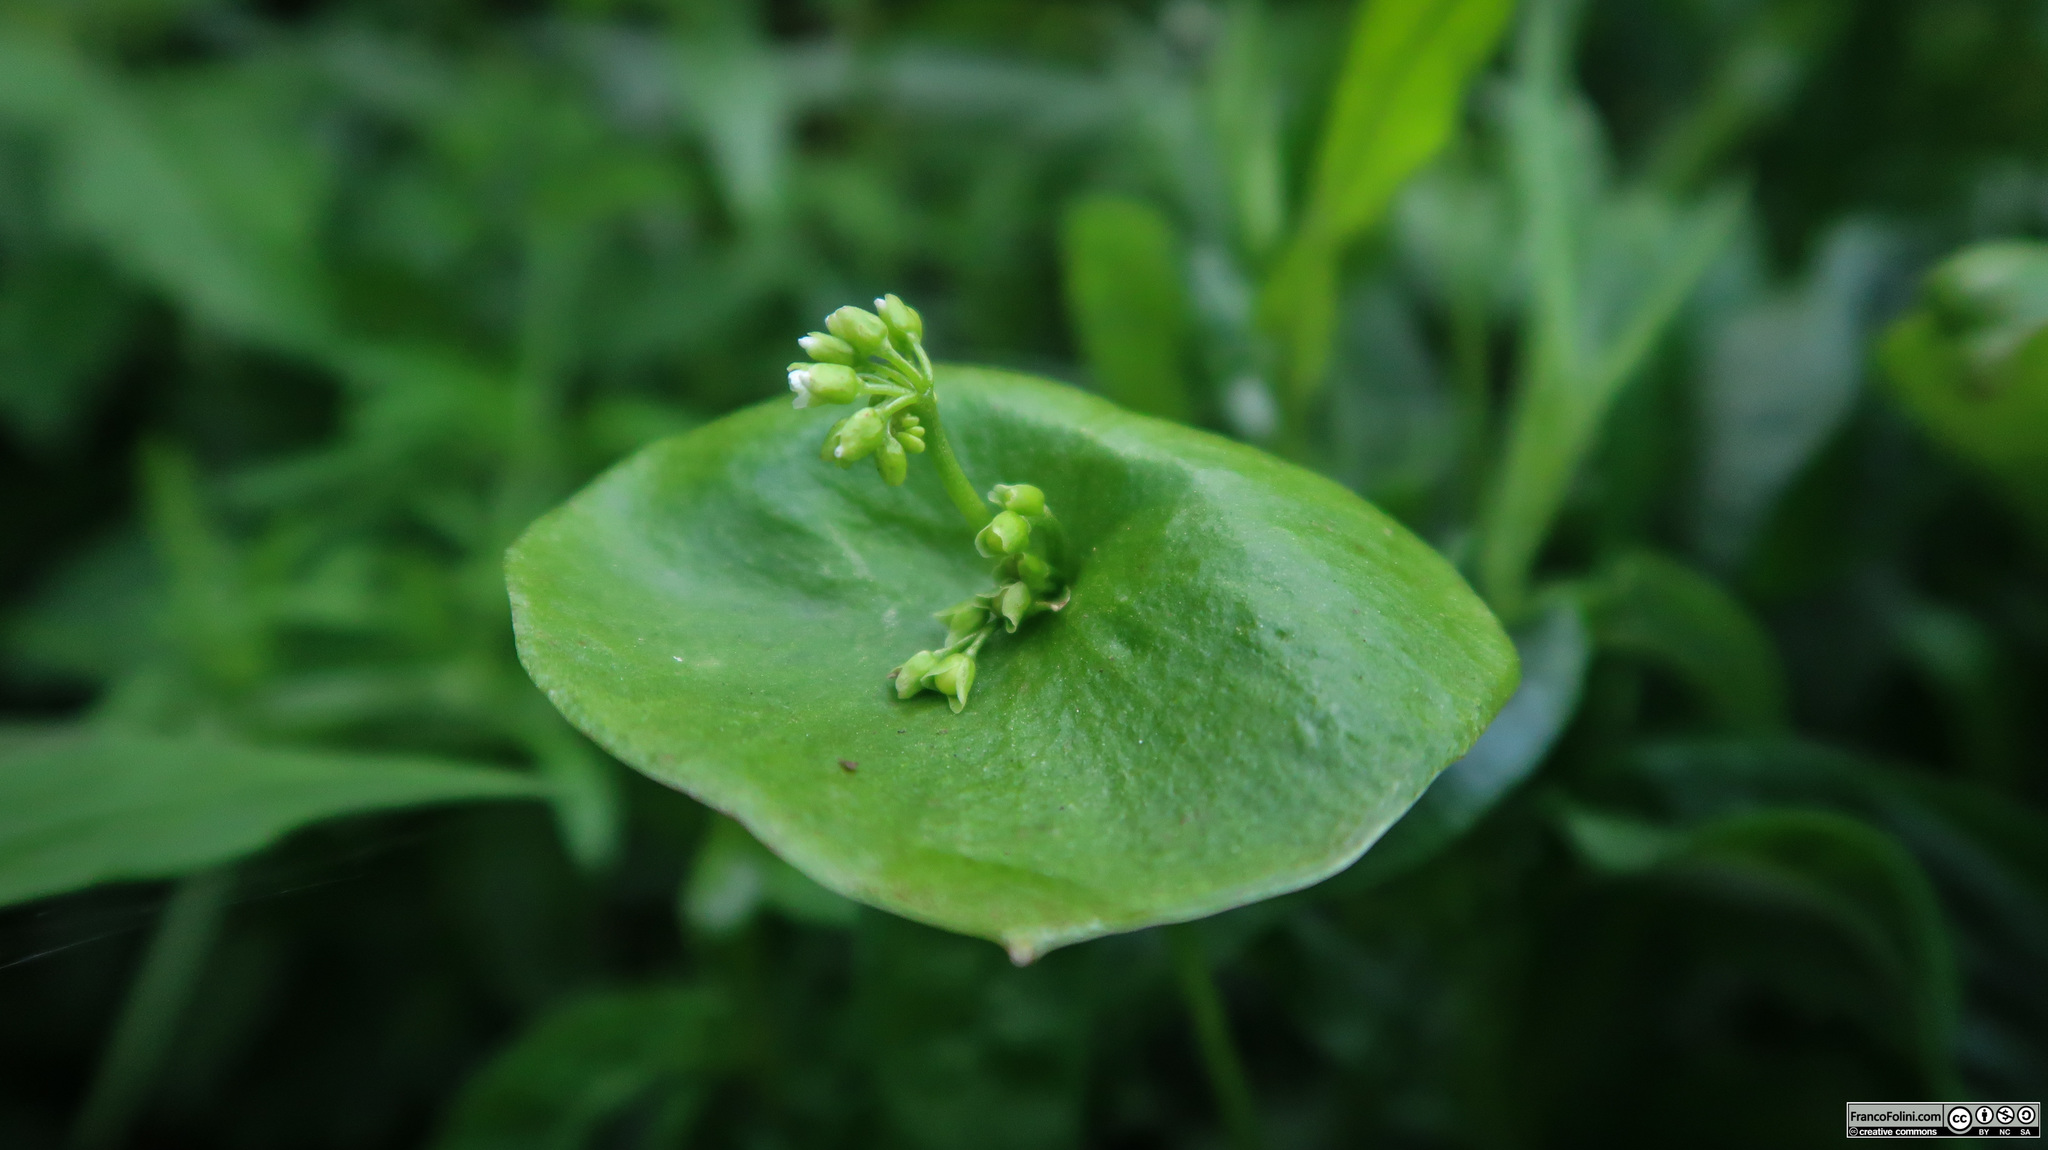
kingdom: Plantae
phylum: Tracheophyta
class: Magnoliopsida
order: Caryophyllales
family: Montiaceae
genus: Claytonia
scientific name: Claytonia perfoliata
